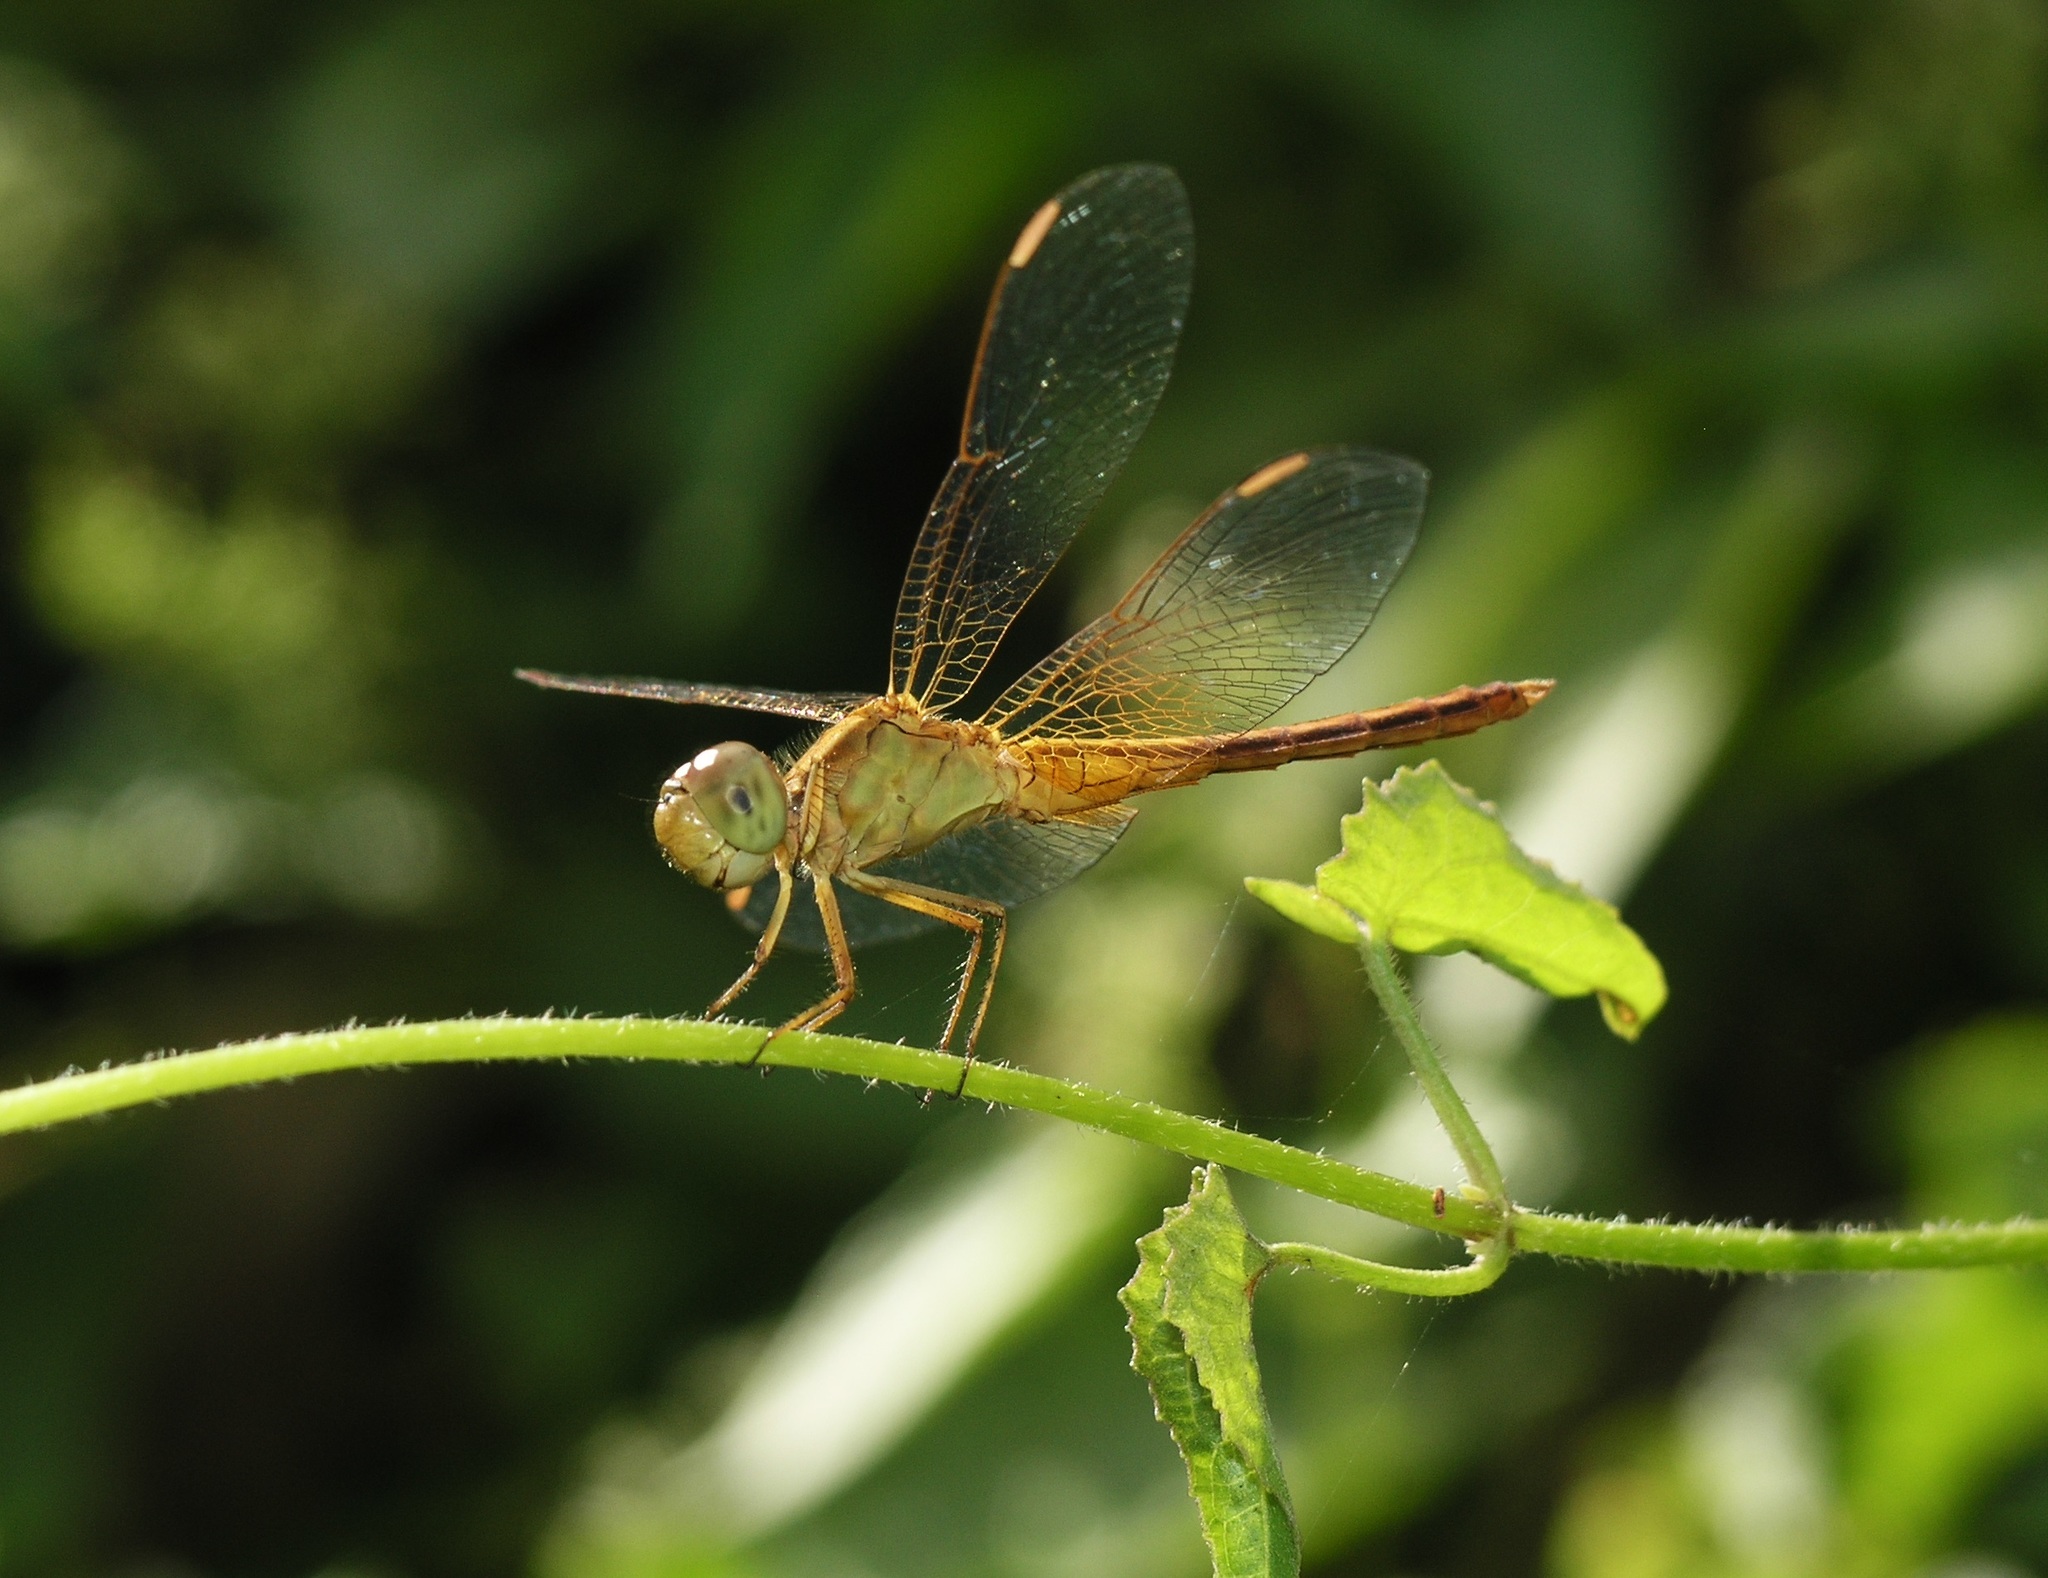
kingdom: Animalia
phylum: Arthropoda
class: Insecta
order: Odonata
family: Libellulidae
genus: Neurothemis
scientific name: Neurothemis intermedia
